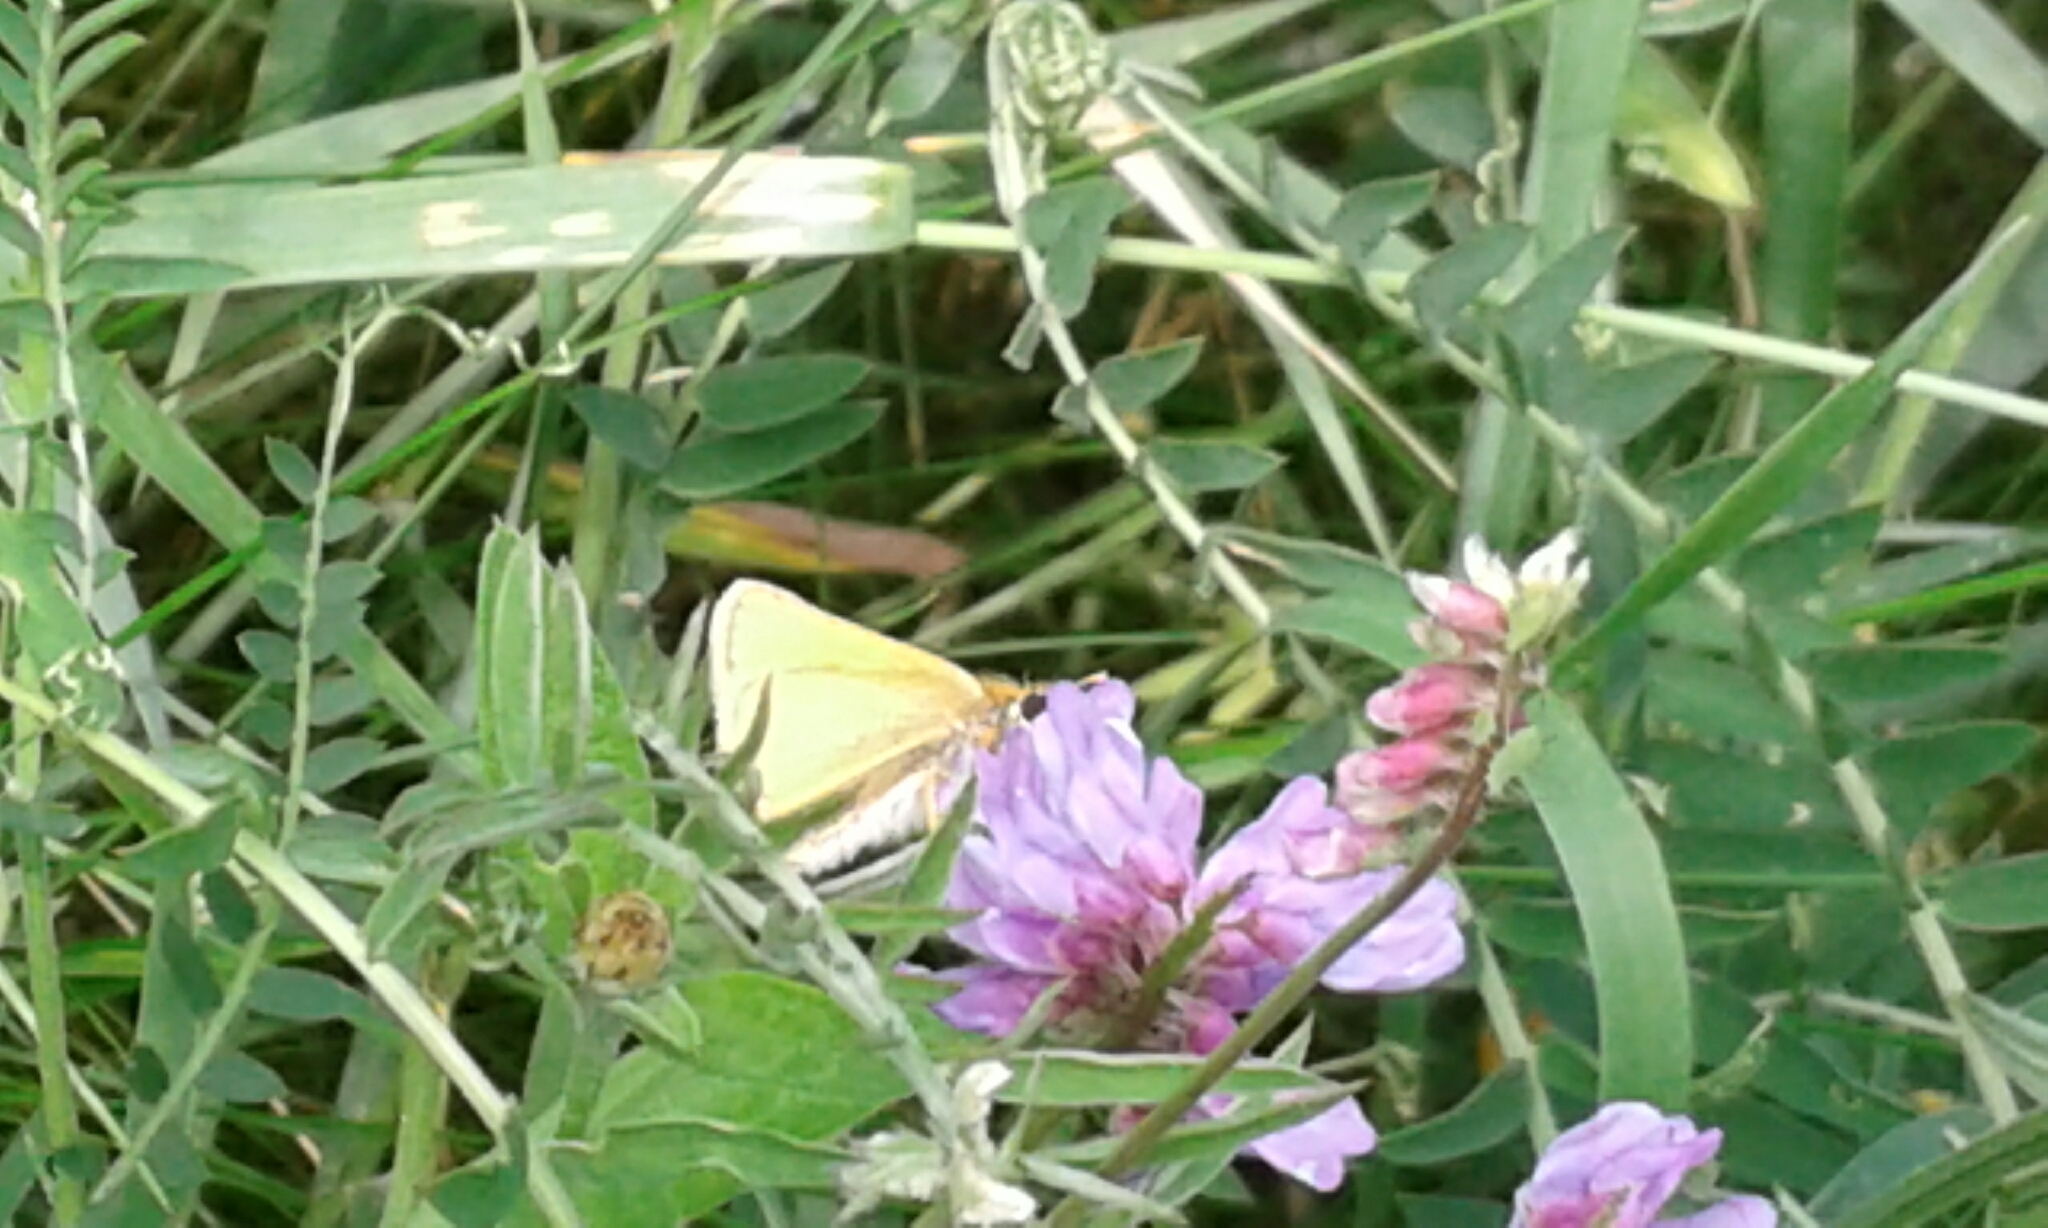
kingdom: Animalia
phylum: Arthropoda
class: Insecta
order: Lepidoptera
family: Hesperiidae
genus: Thymelicus
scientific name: Thymelicus lineola
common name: Essex skipper
